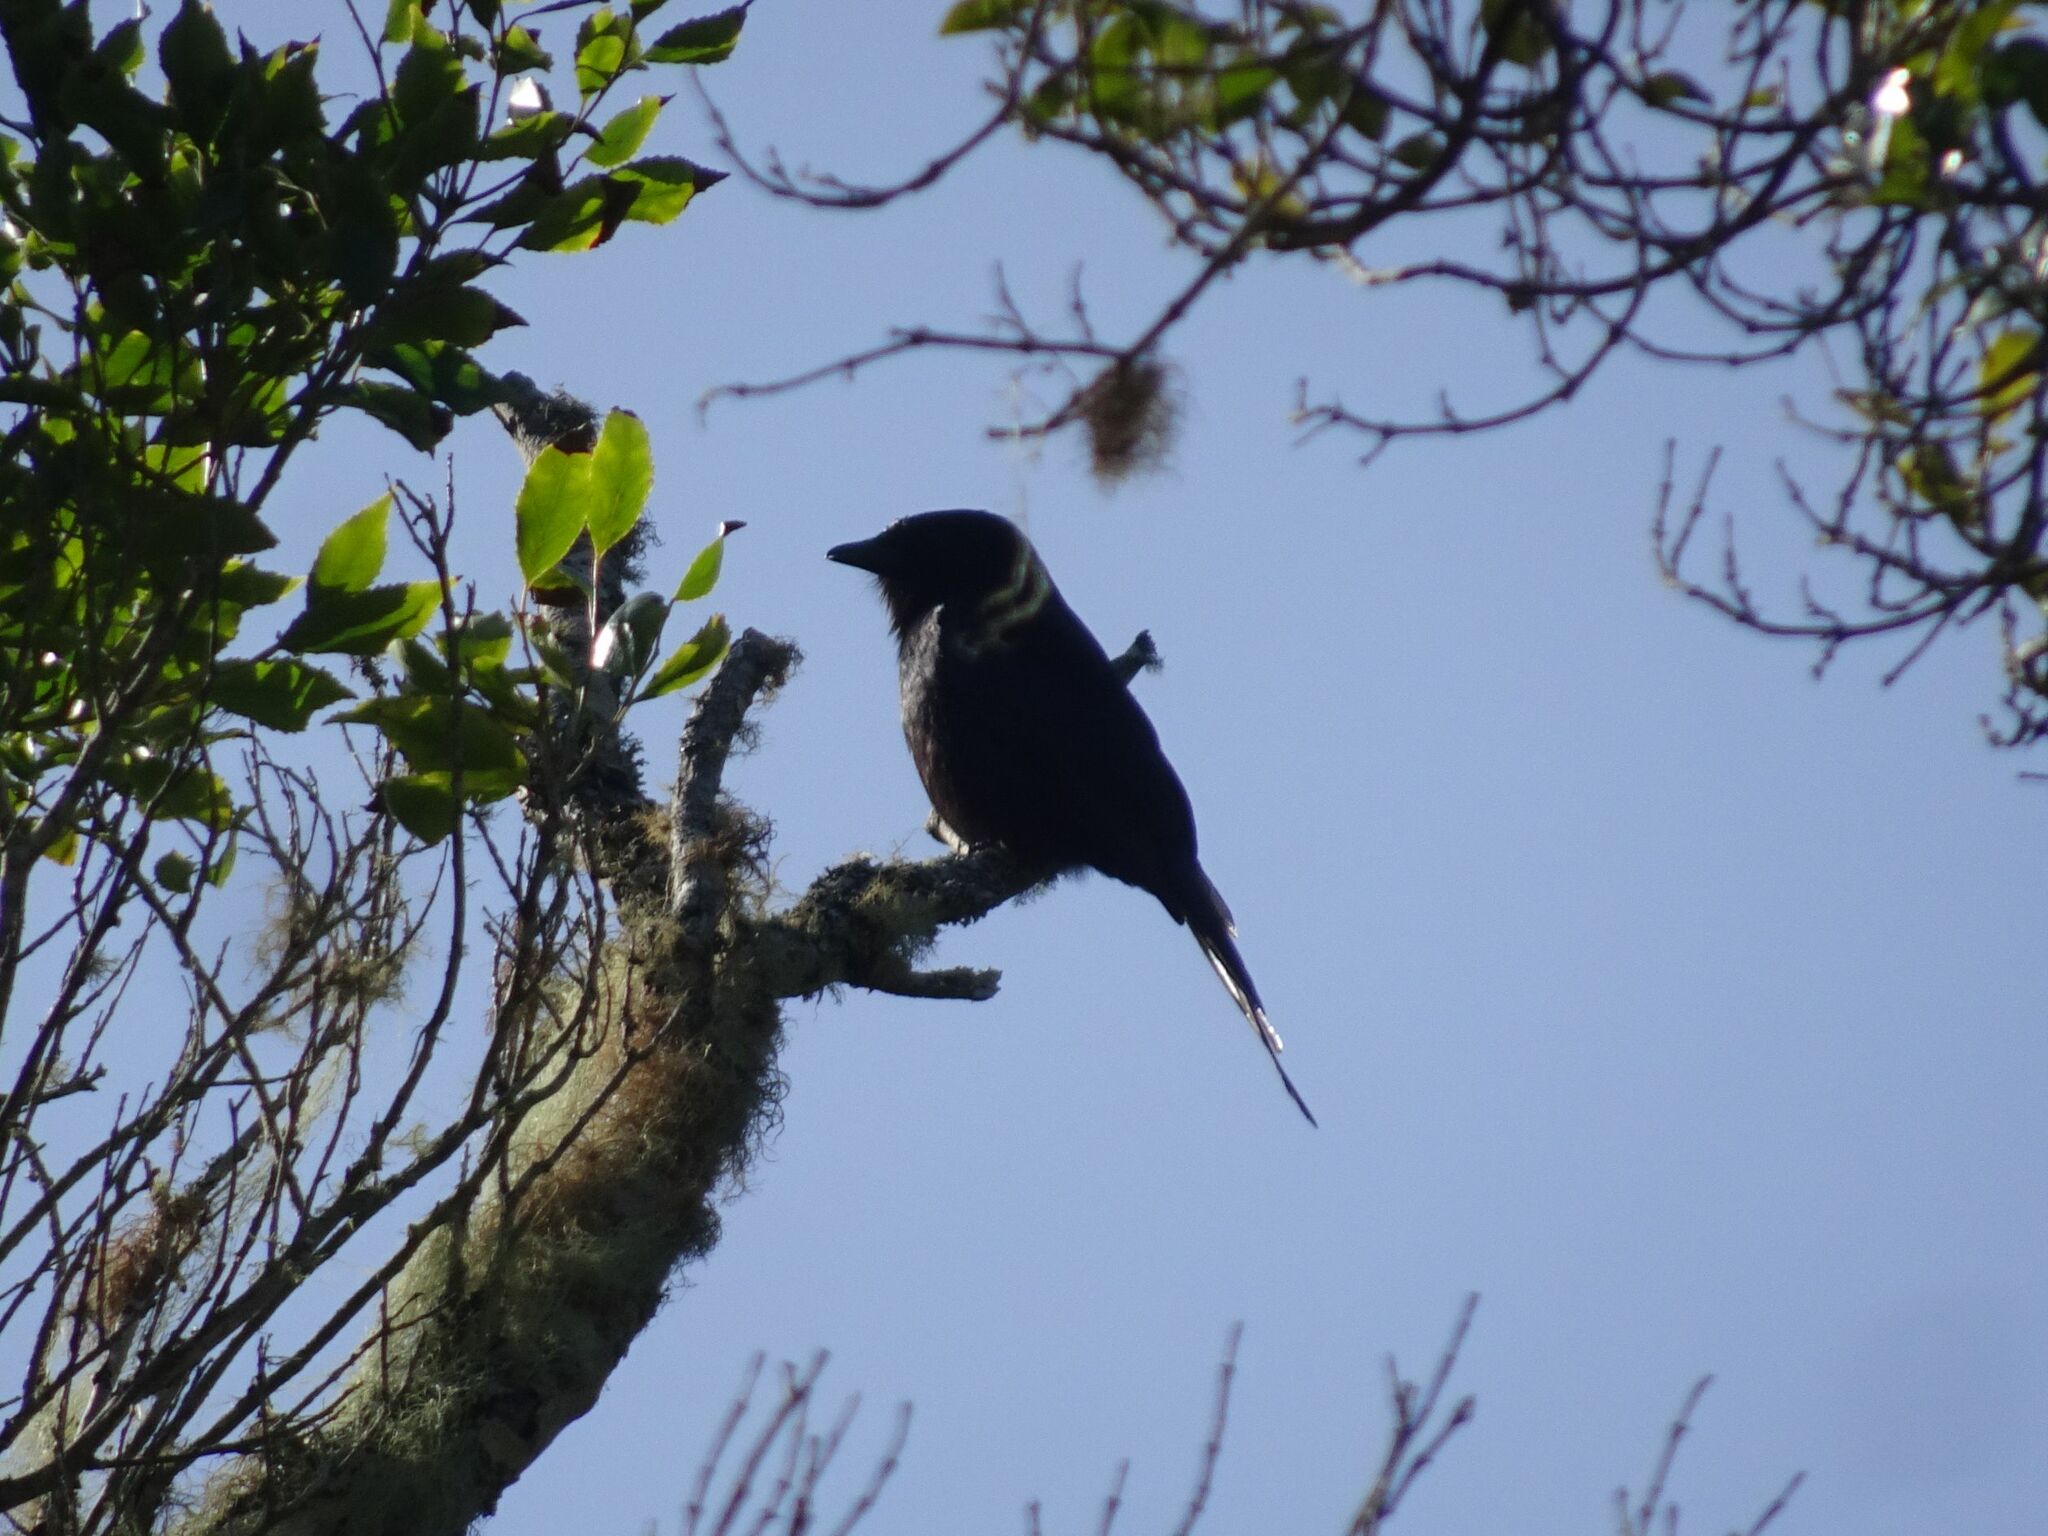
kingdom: Animalia
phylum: Chordata
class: Aves
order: Passeriformes
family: Dicruridae
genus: Dicrurus
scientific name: Dicrurus adsimilis
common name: Fork-tailed drongo
